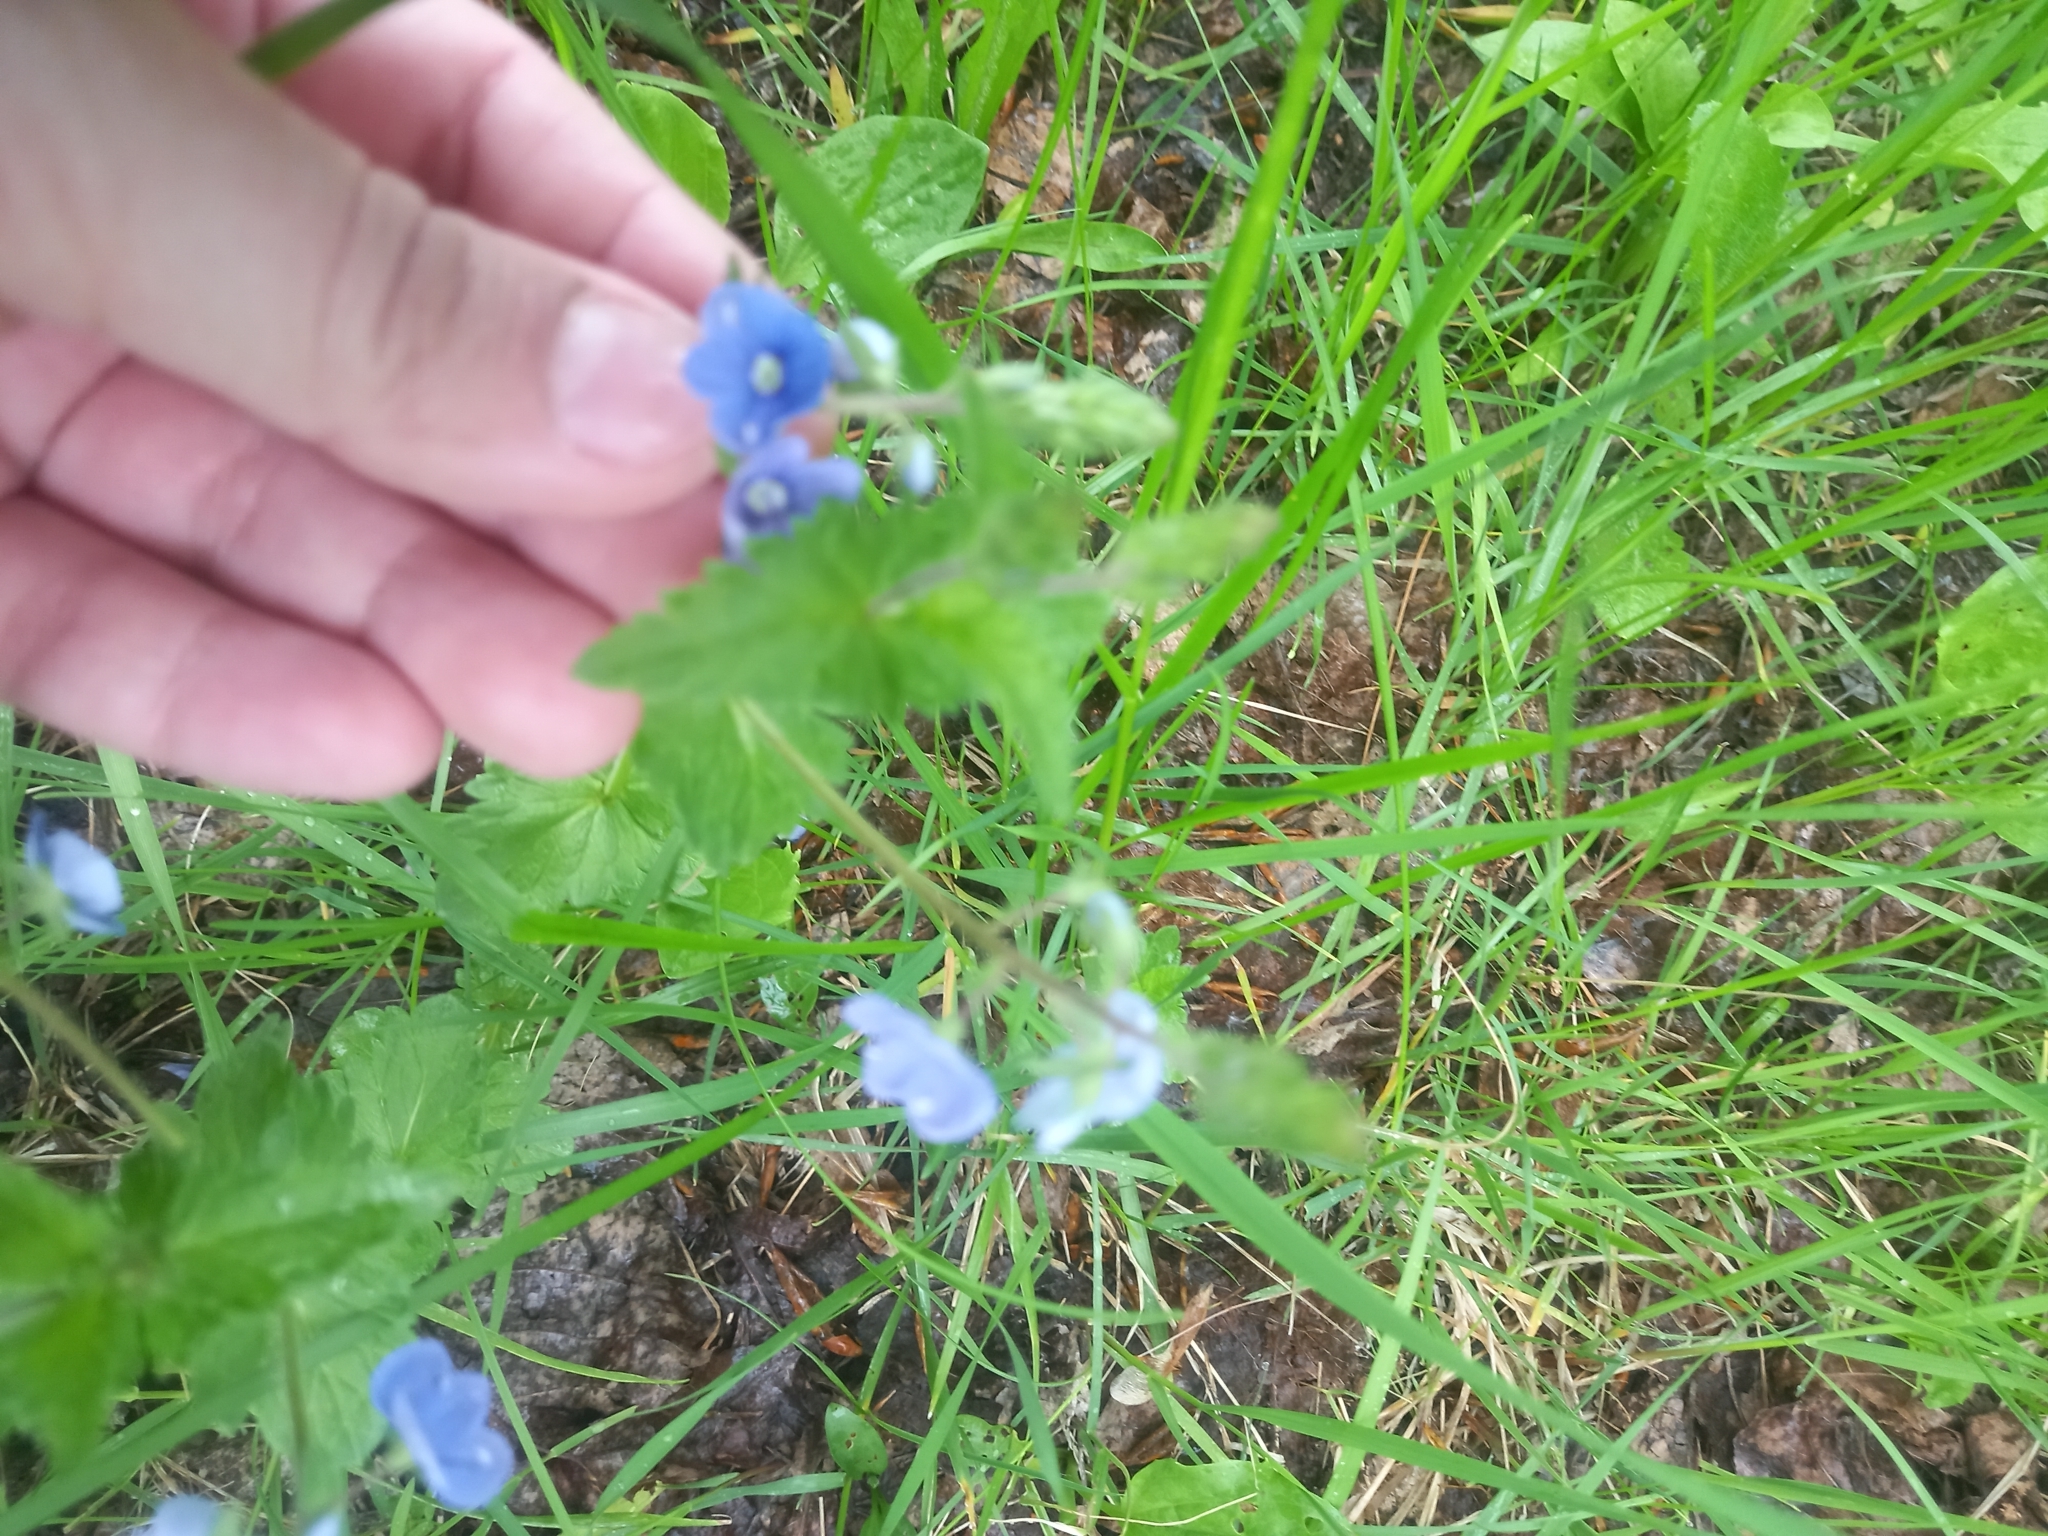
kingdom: Plantae
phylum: Tracheophyta
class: Magnoliopsida
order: Lamiales
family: Plantaginaceae
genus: Veronica
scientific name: Veronica chamaedrys
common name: Germander speedwell
